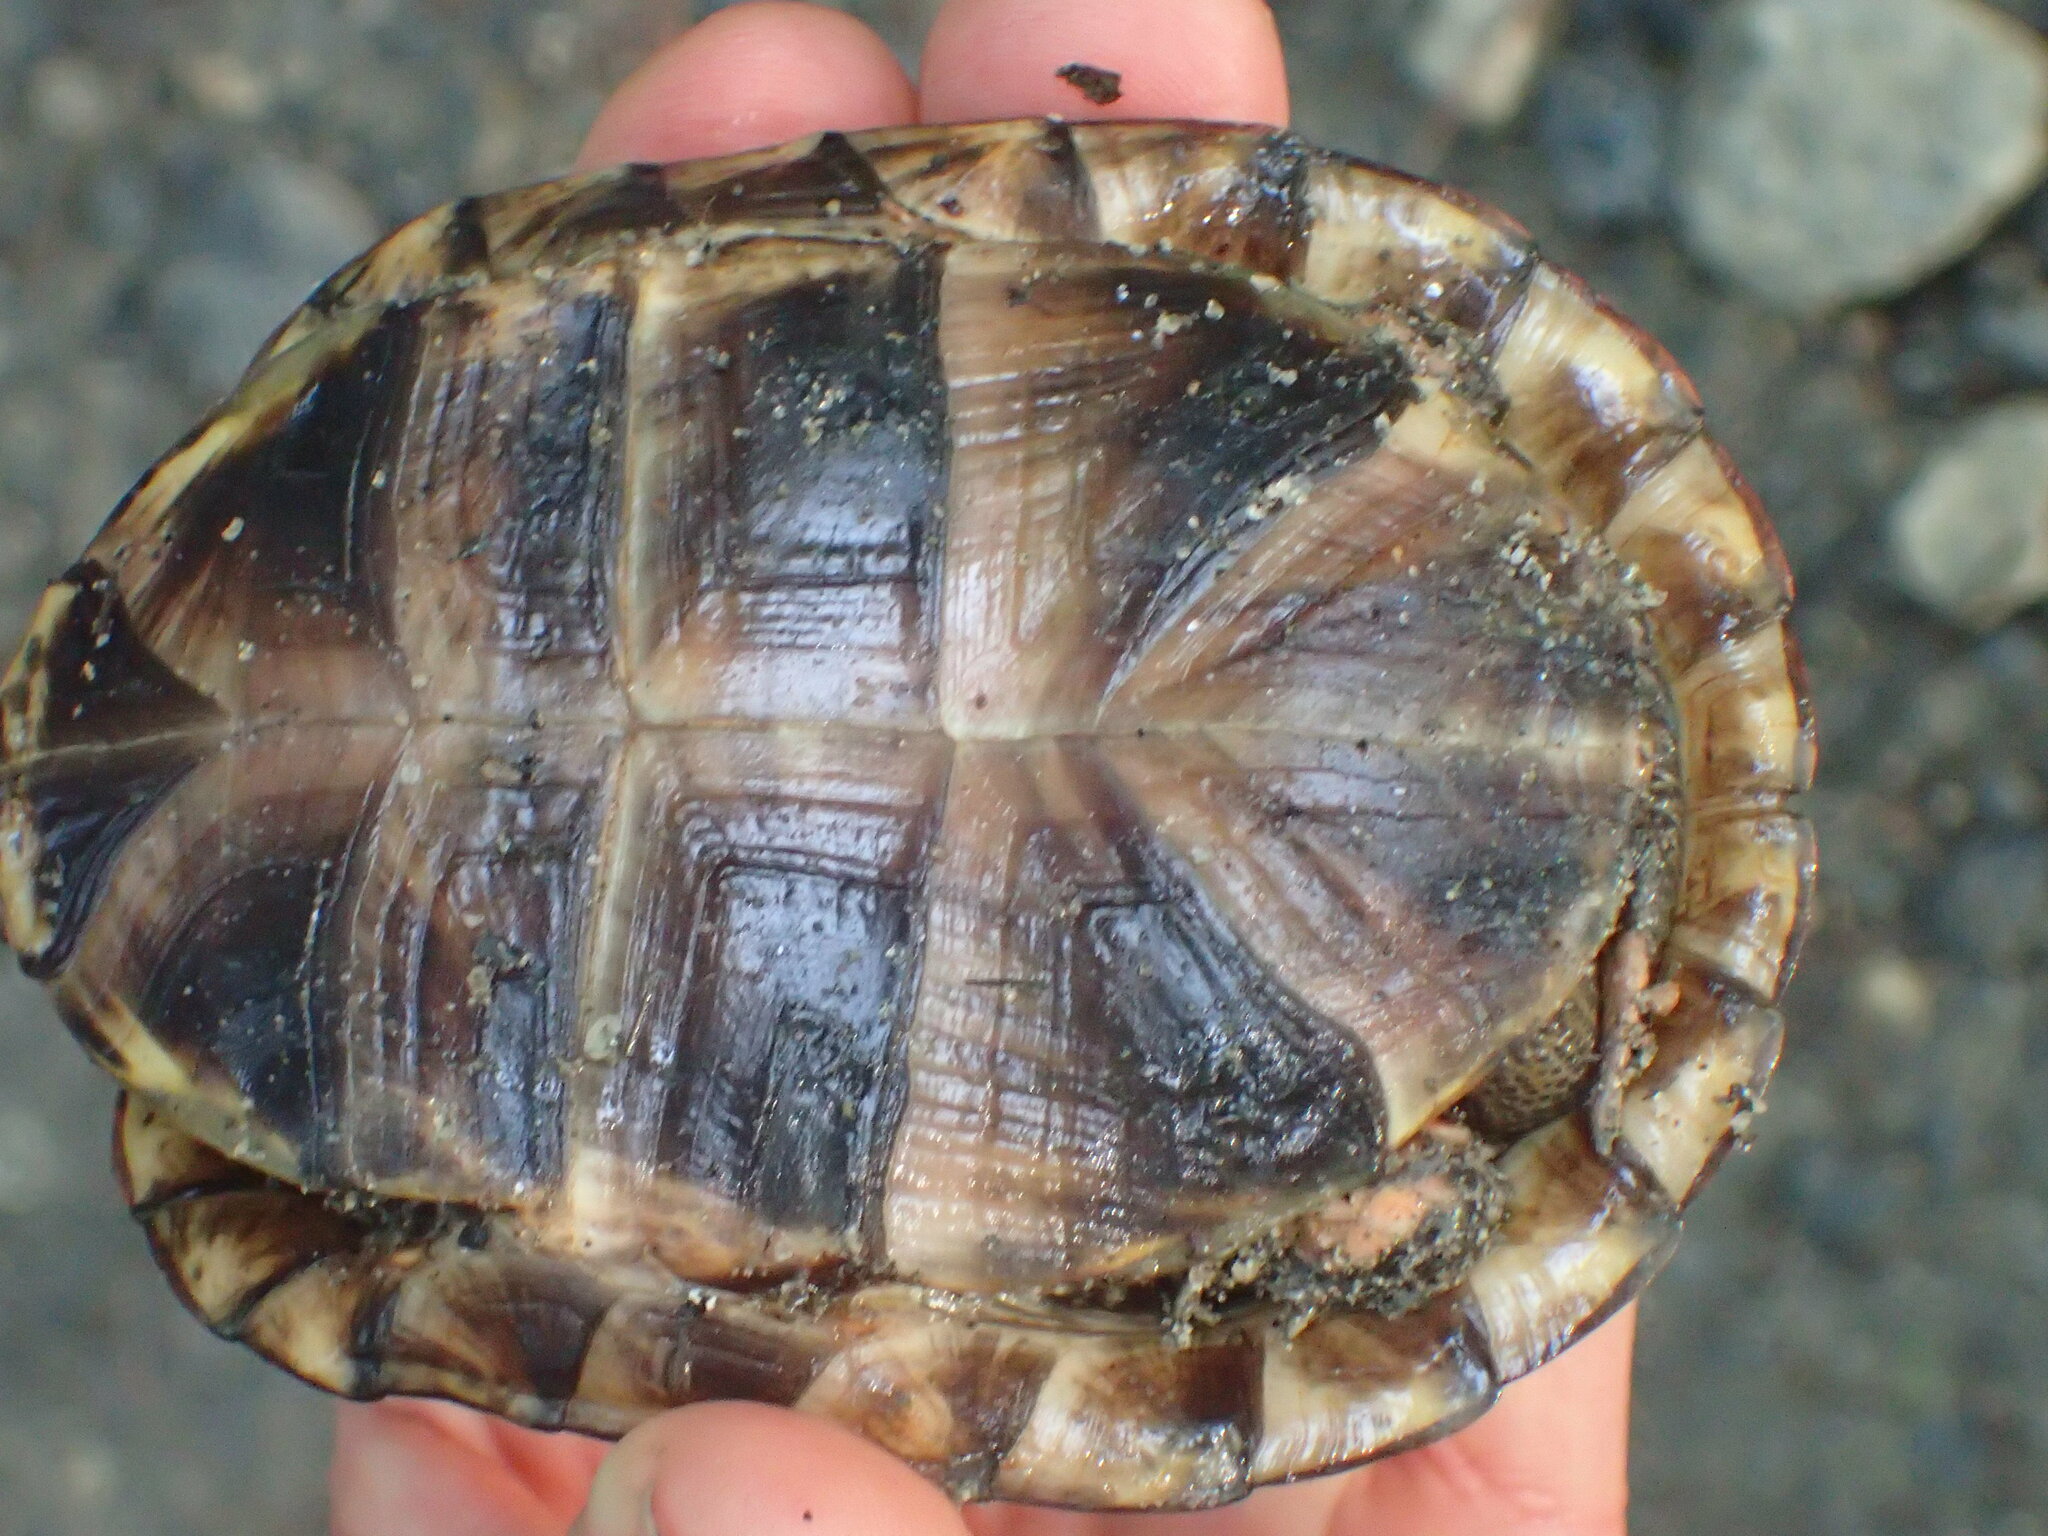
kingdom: Animalia
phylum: Chordata
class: Testudines
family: Emydidae
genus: Terrapene
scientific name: Terrapene carolina
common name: Common box turtle
